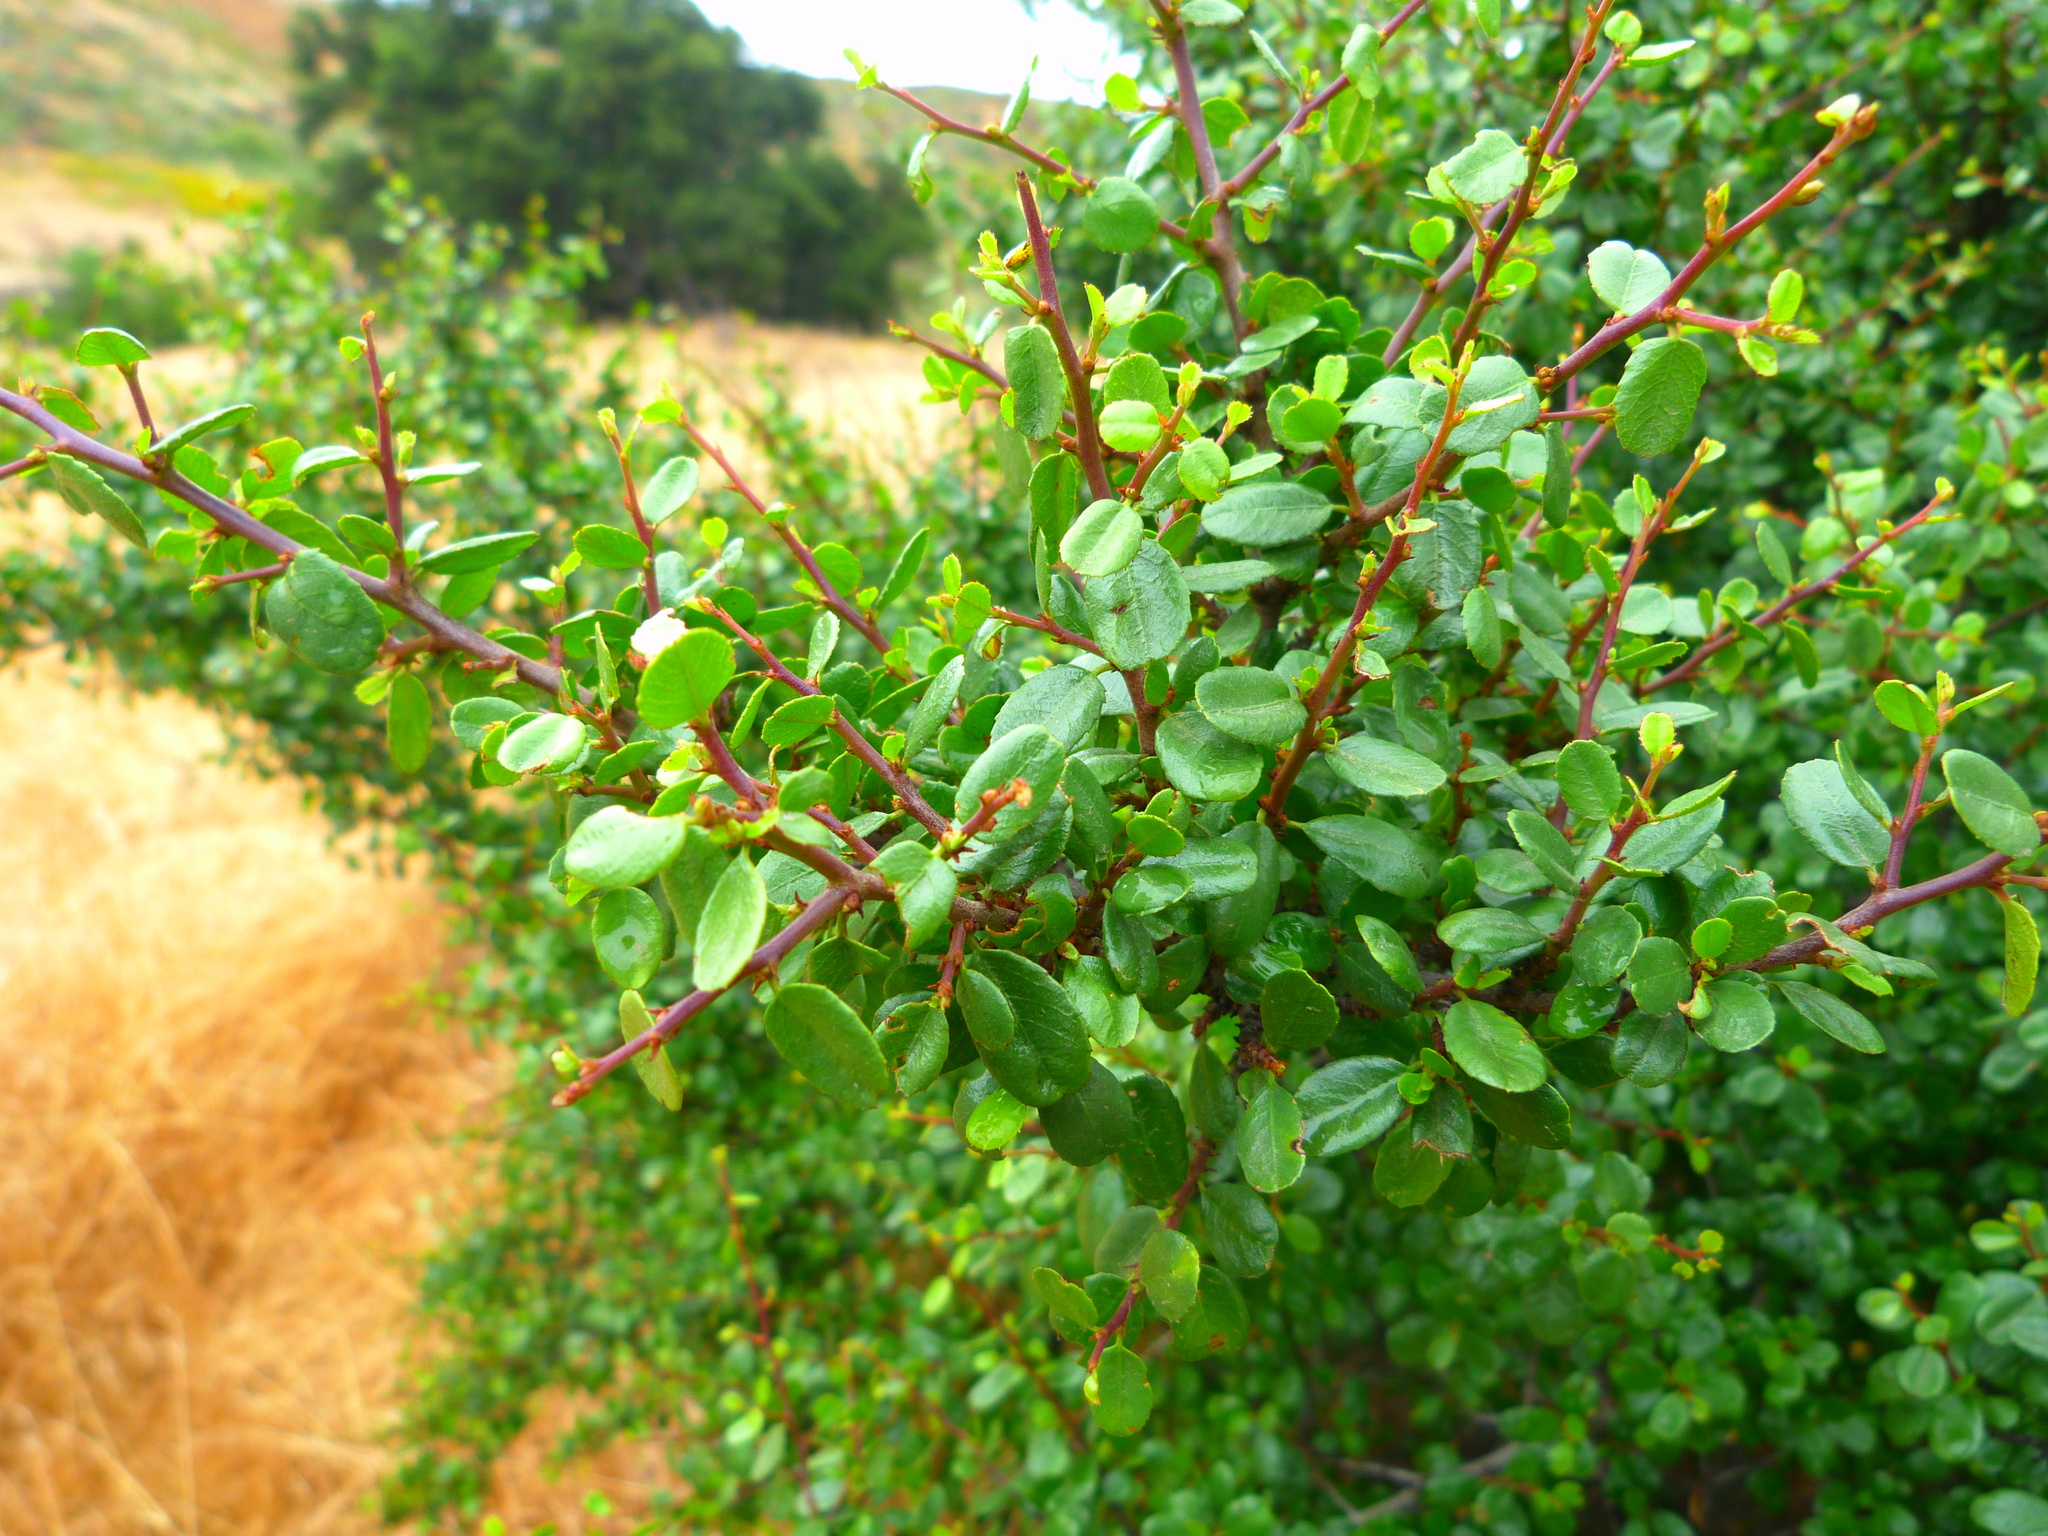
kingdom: Plantae
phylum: Tracheophyta
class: Magnoliopsida
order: Rosales
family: Rhamnaceae
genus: Endotropis
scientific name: Endotropis crocea
